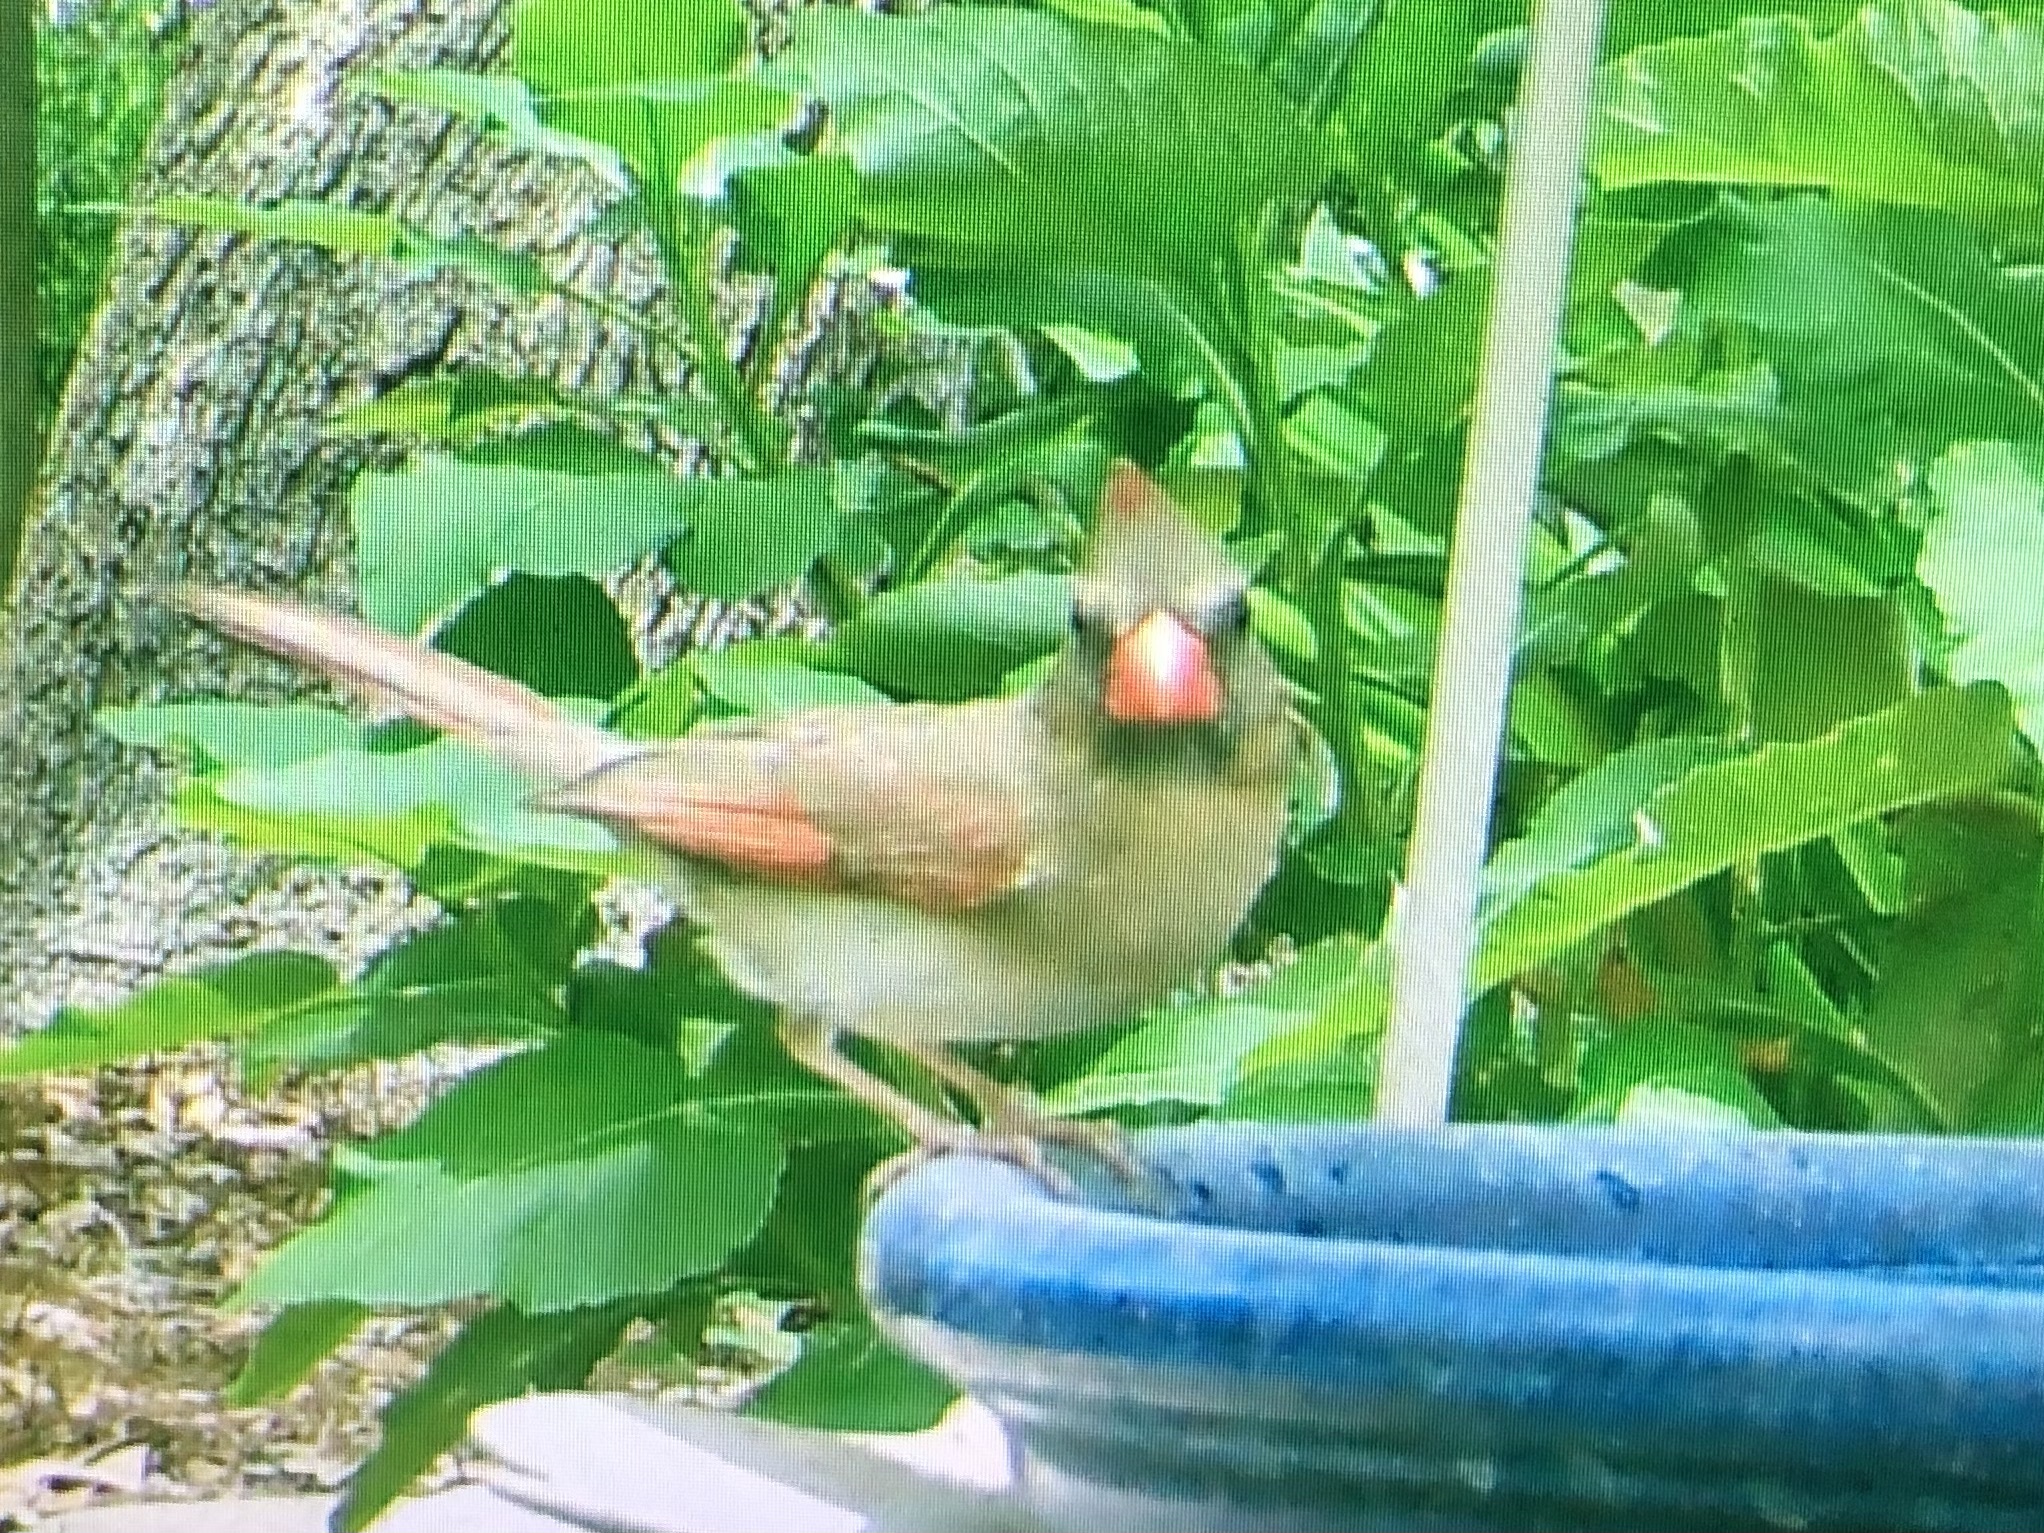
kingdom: Animalia
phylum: Chordata
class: Aves
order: Passeriformes
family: Cardinalidae
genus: Cardinalis
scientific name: Cardinalis cardinalis
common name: Northern cardinal
